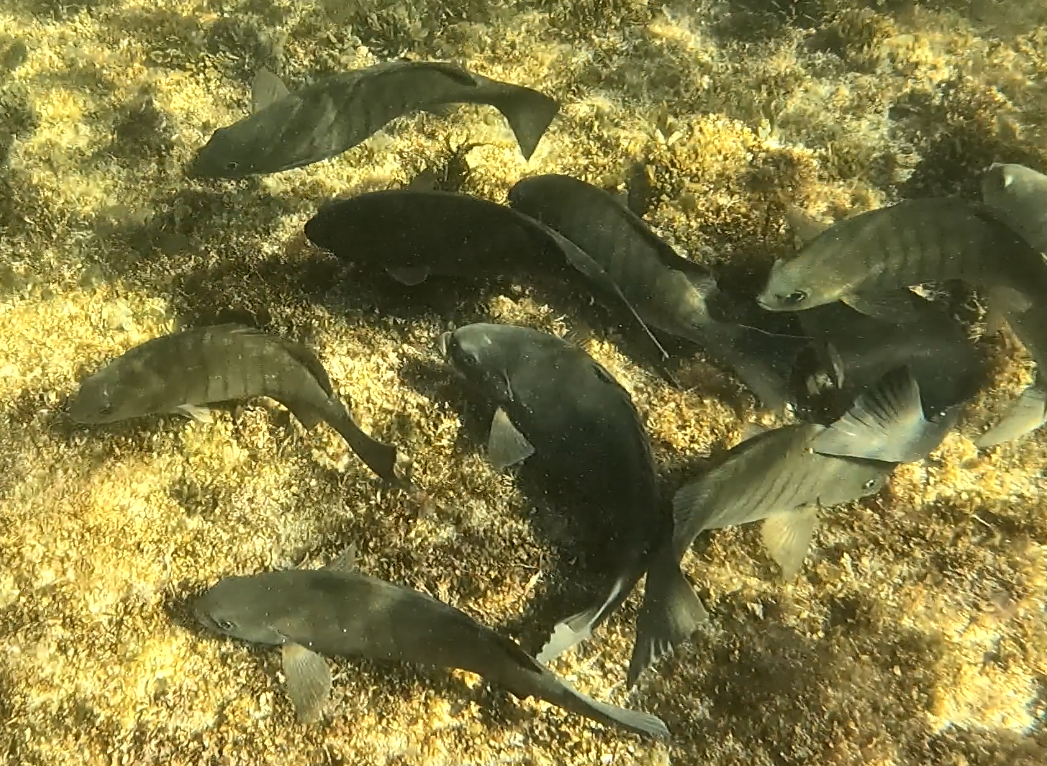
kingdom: Animalia
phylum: Chordata
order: Perciformes
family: Kyphosidae
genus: Girella
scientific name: Girella tricuspidata
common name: Parore
